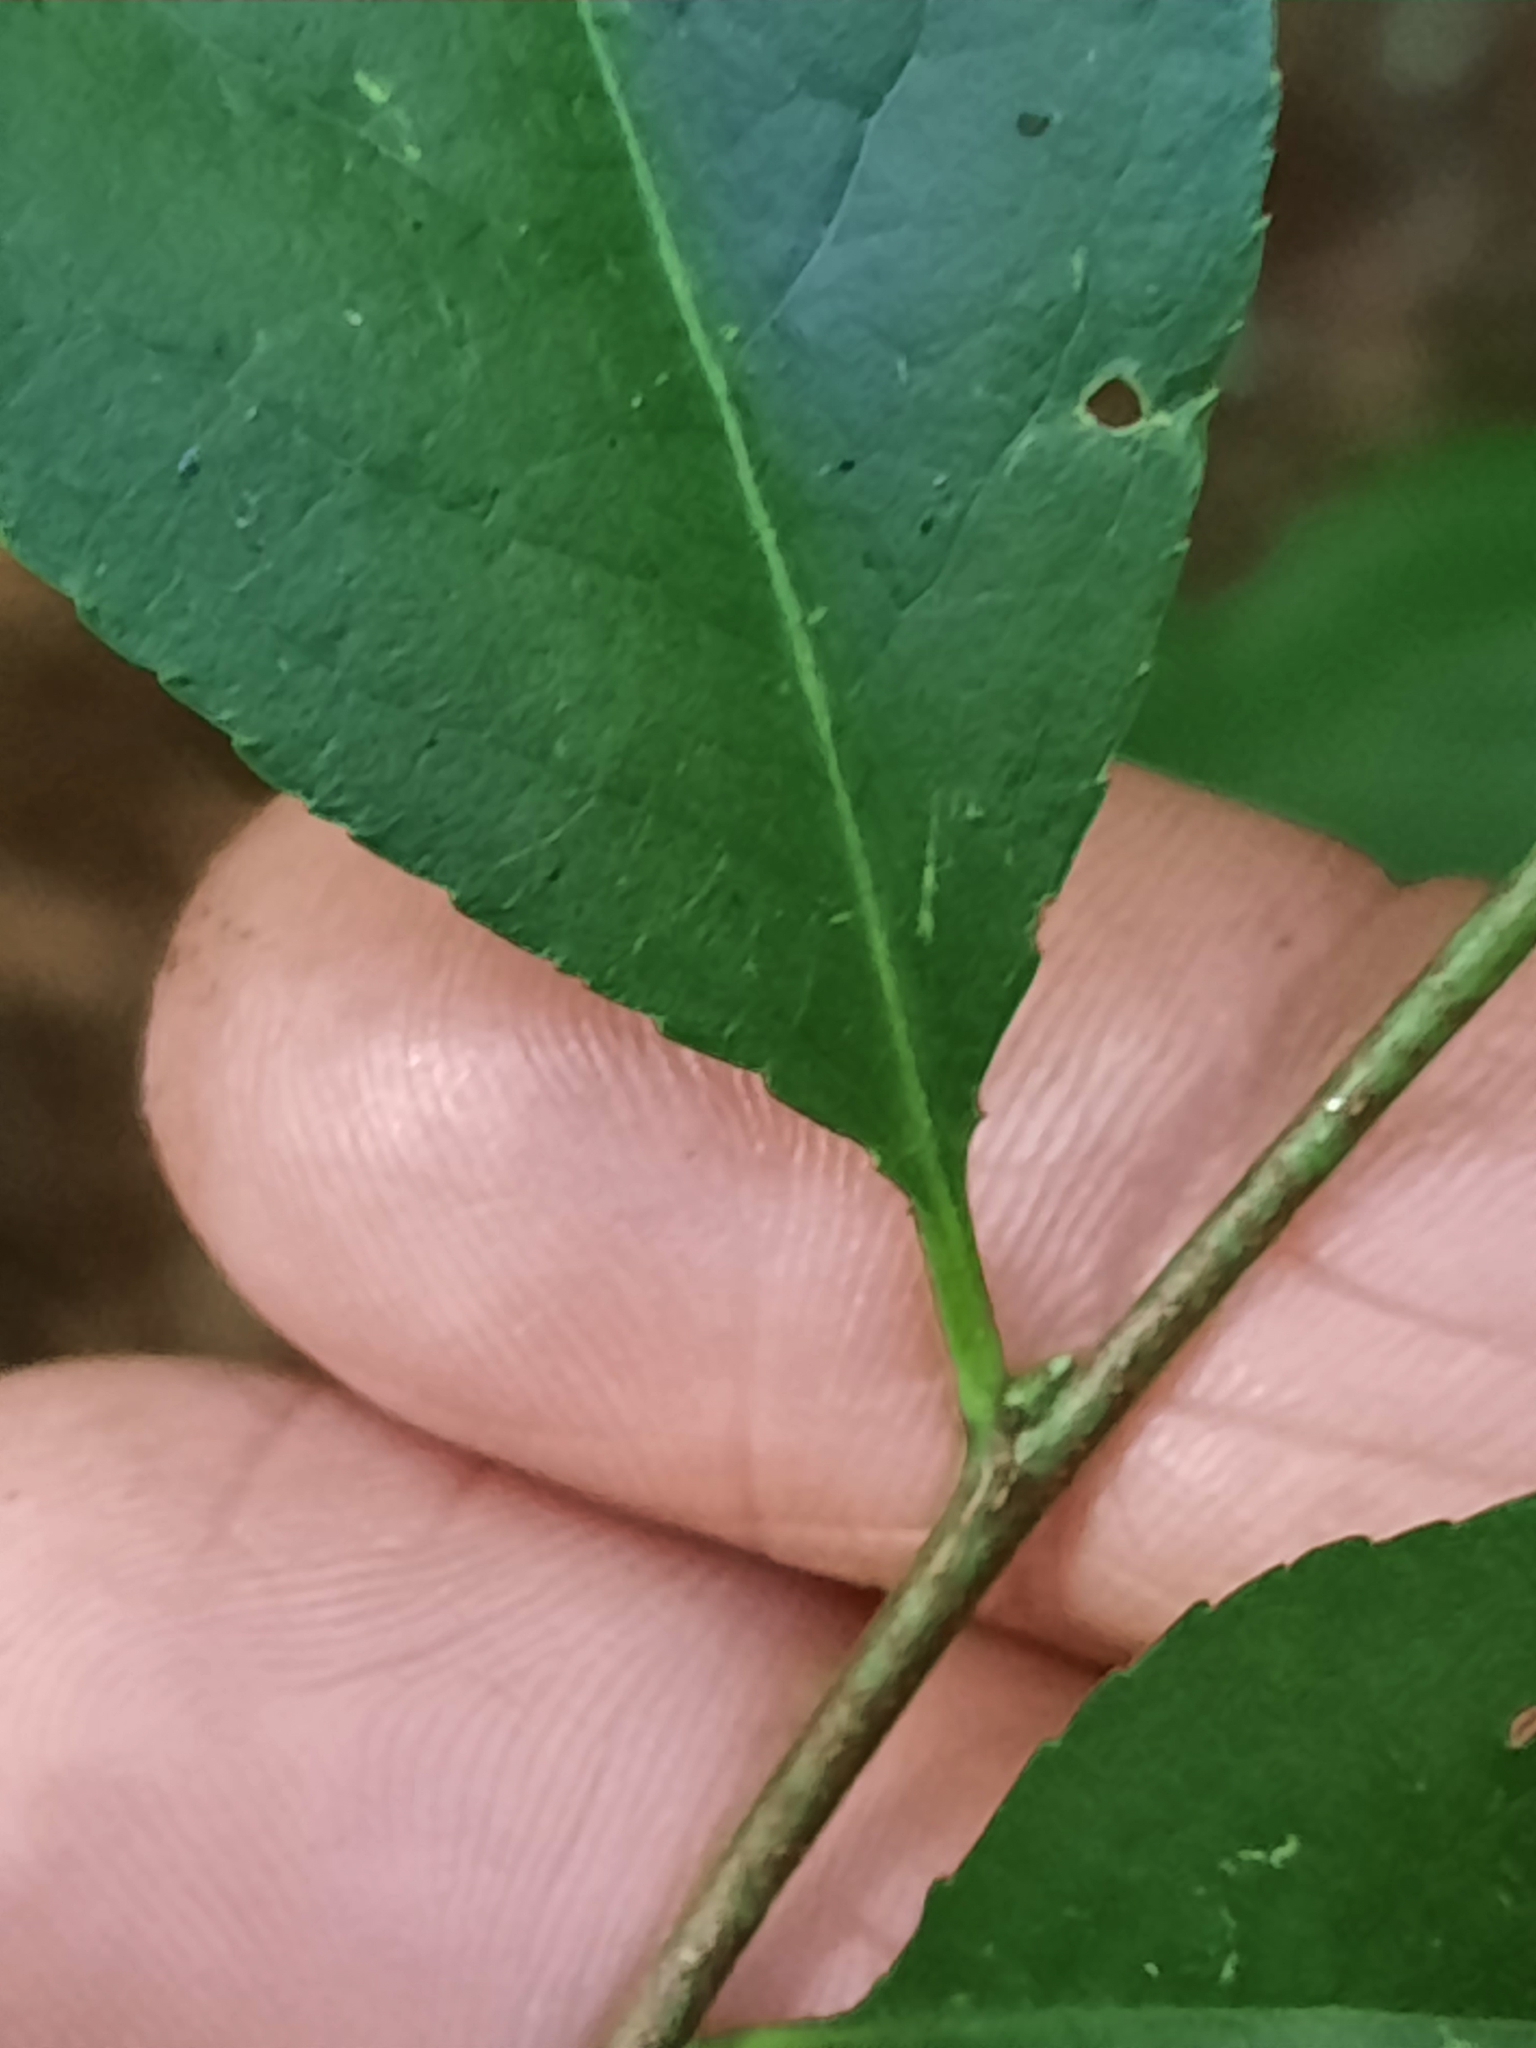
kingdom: Plantae
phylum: Tracheophyta
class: Magnoliopsida
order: Rosales
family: Rosaceae
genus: Prunus
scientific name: Prunus serotina
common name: Black cherry
